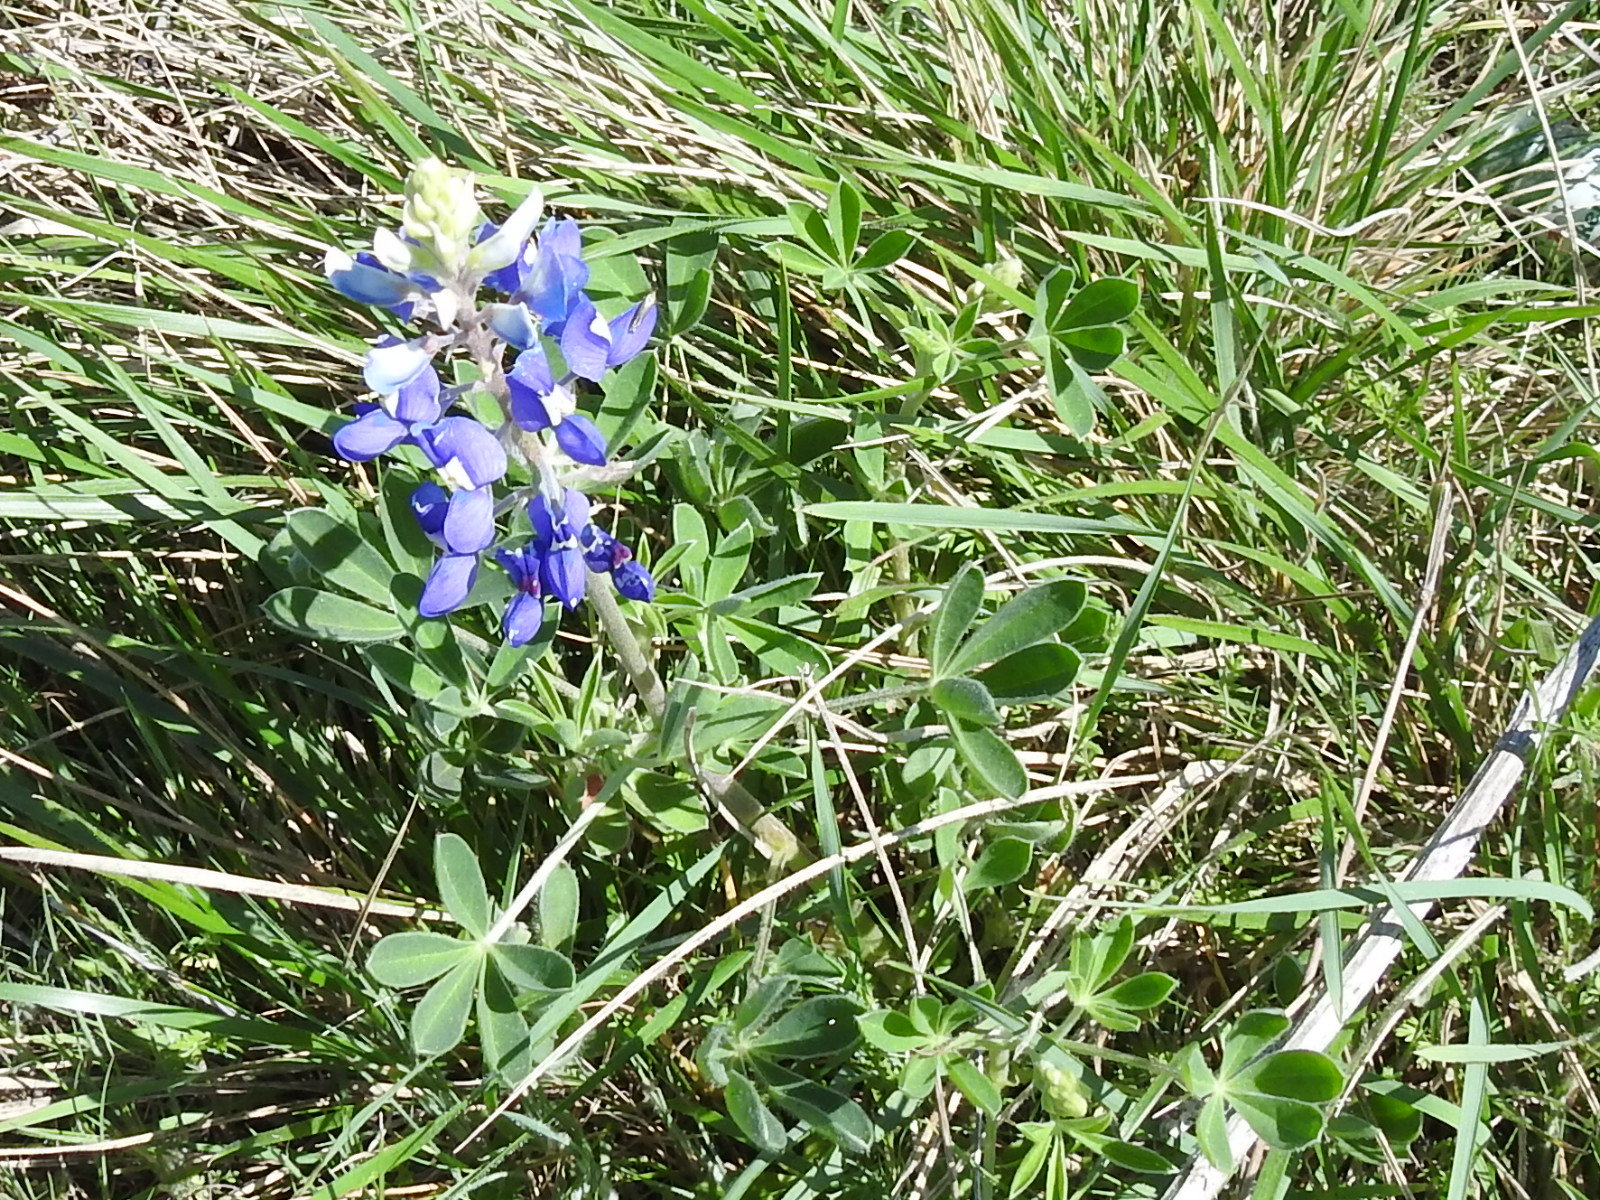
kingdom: Plantae
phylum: Tracheophyta
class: Magnoliopsida
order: Fabales
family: Fabaceae
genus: Lupinus
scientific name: Lupinus texensis
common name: Texas bluebonnet
